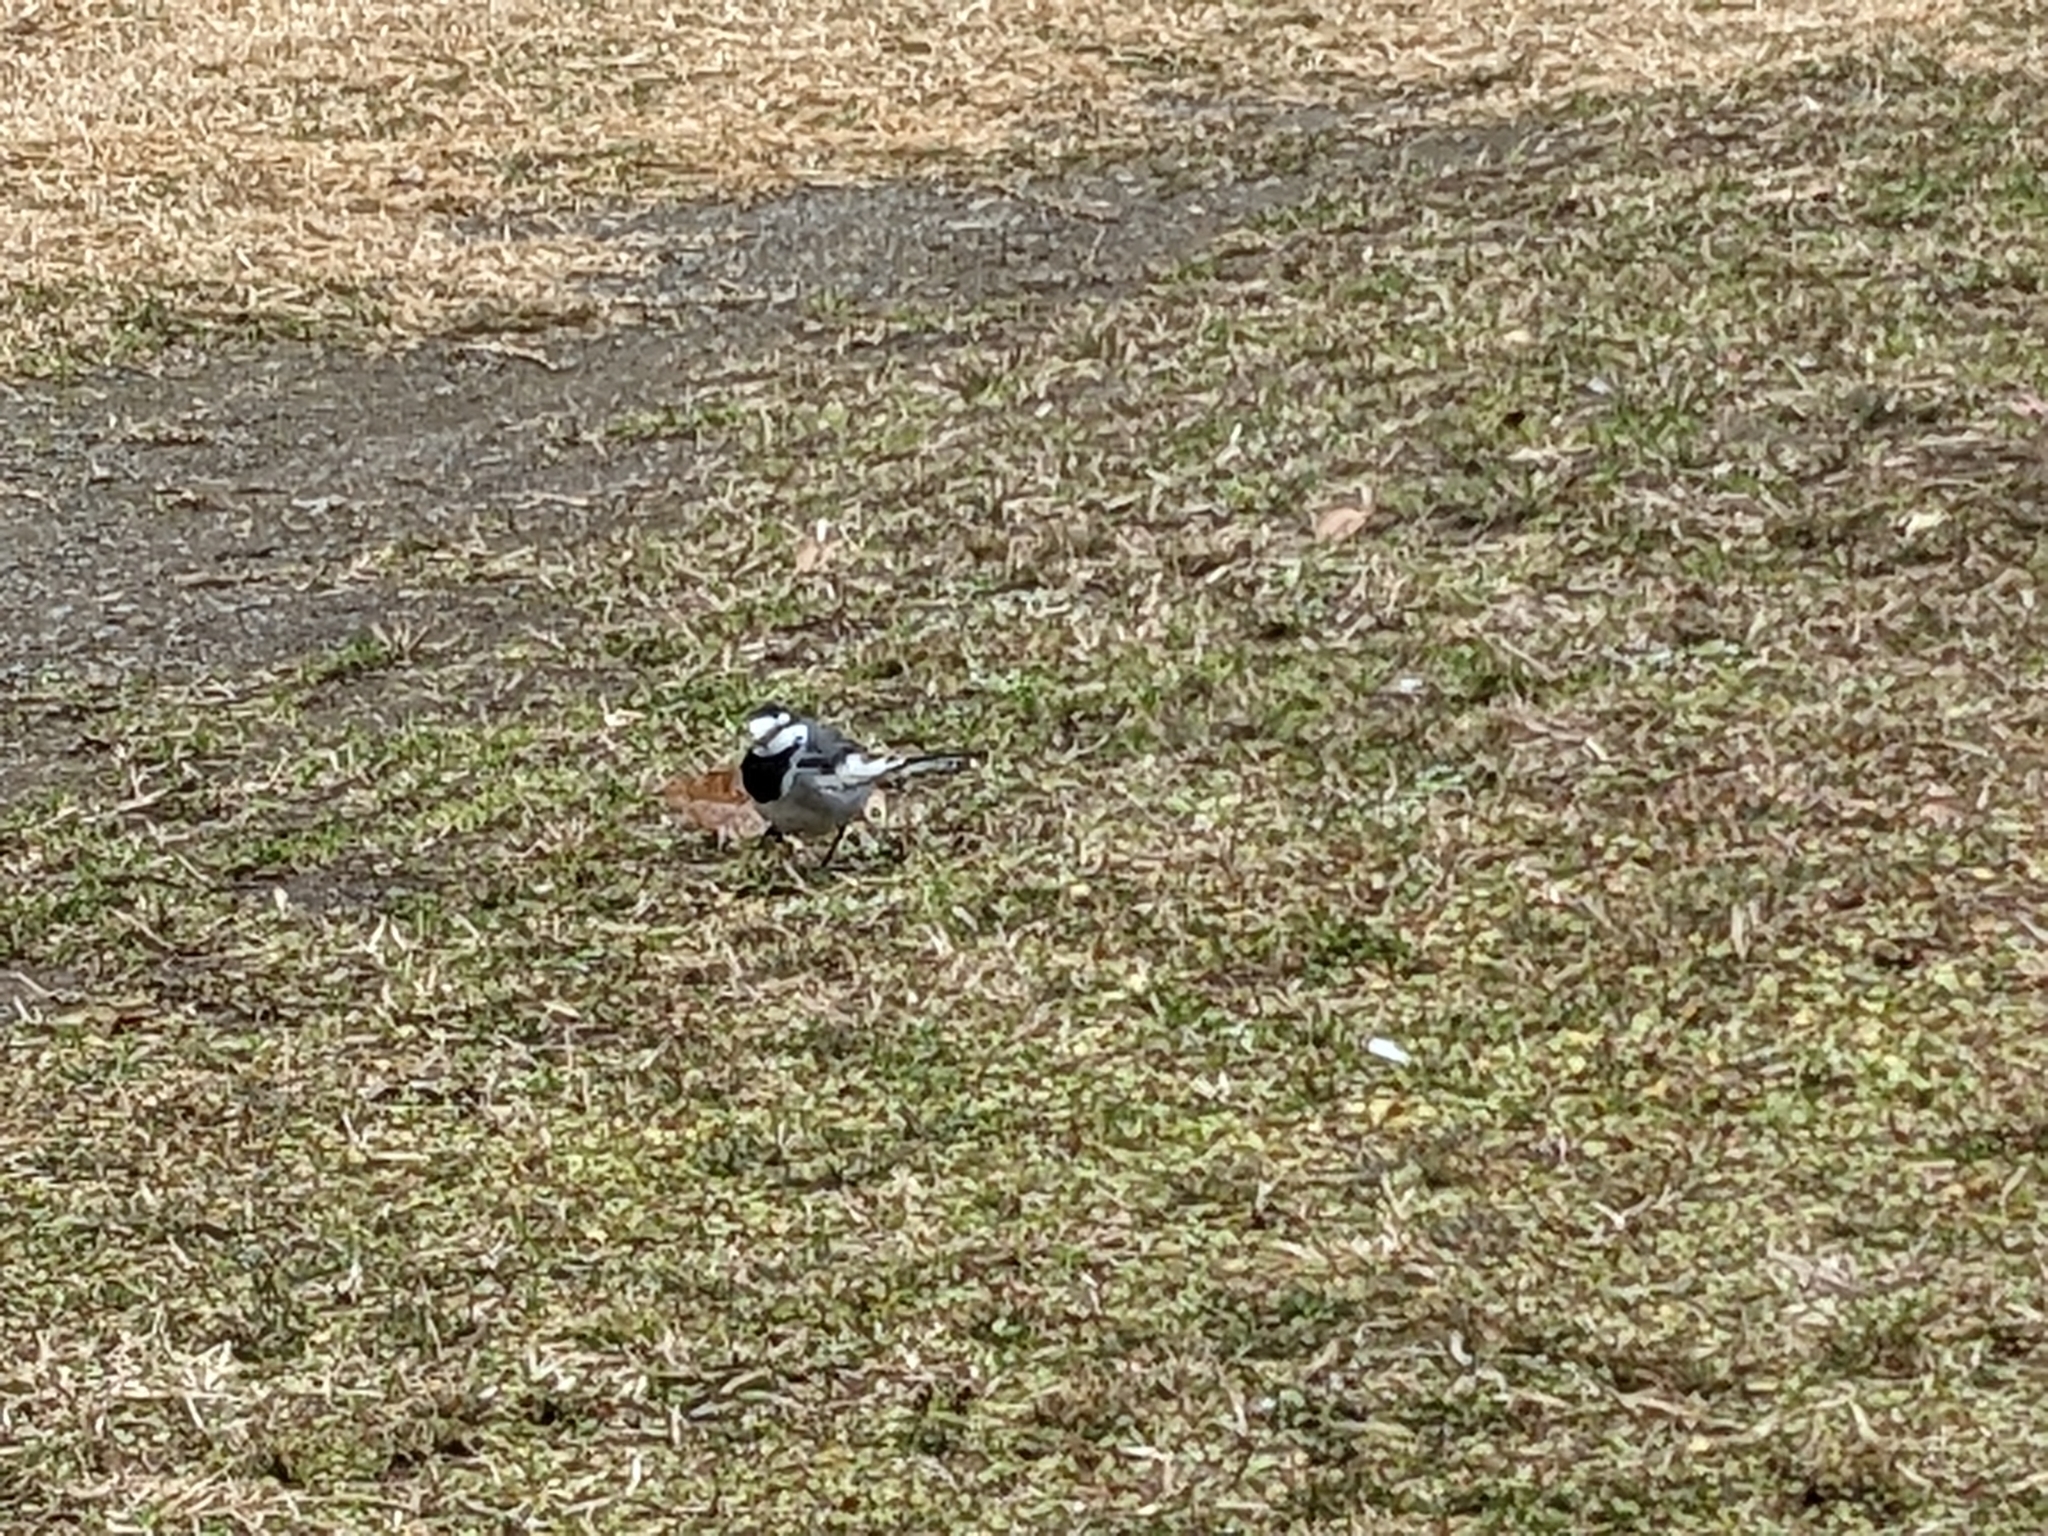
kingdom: Animalia
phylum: Chordata
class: Aves
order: Passeriformes
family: Motacillidae
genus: Motacilla
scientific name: Motacilla alba
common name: White wagtail
